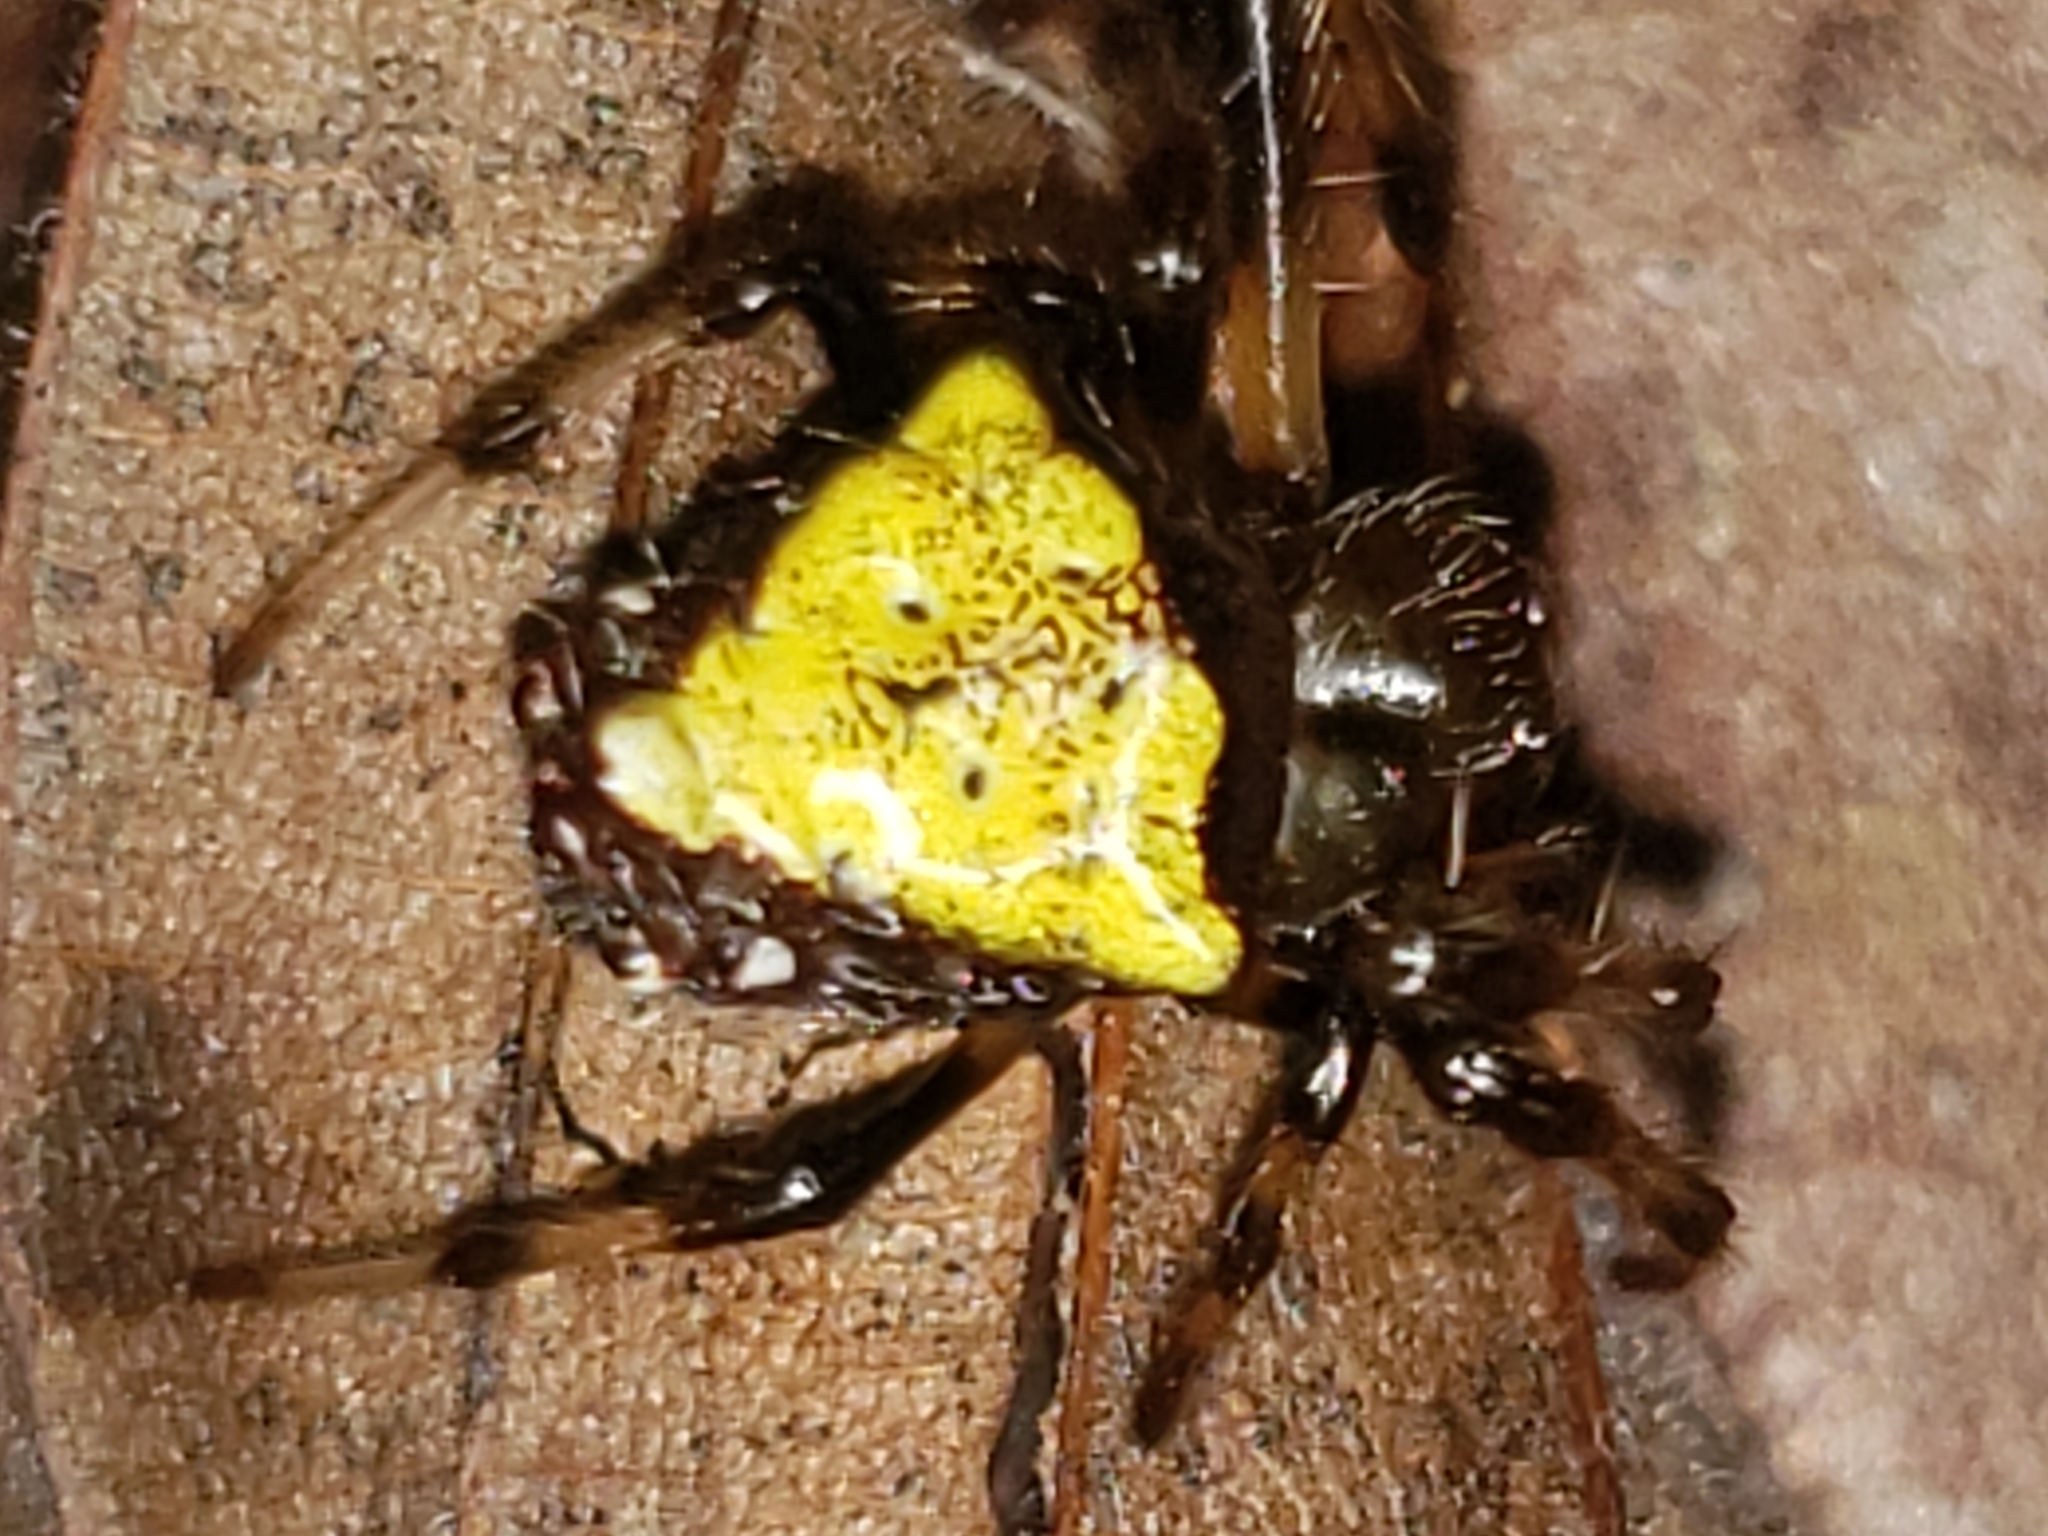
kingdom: Animalia
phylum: Arthropoda
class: Arachnida
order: Araneae
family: Araneidae
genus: Verrucosa
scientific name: Verrucosa arenata
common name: Orb weavers
